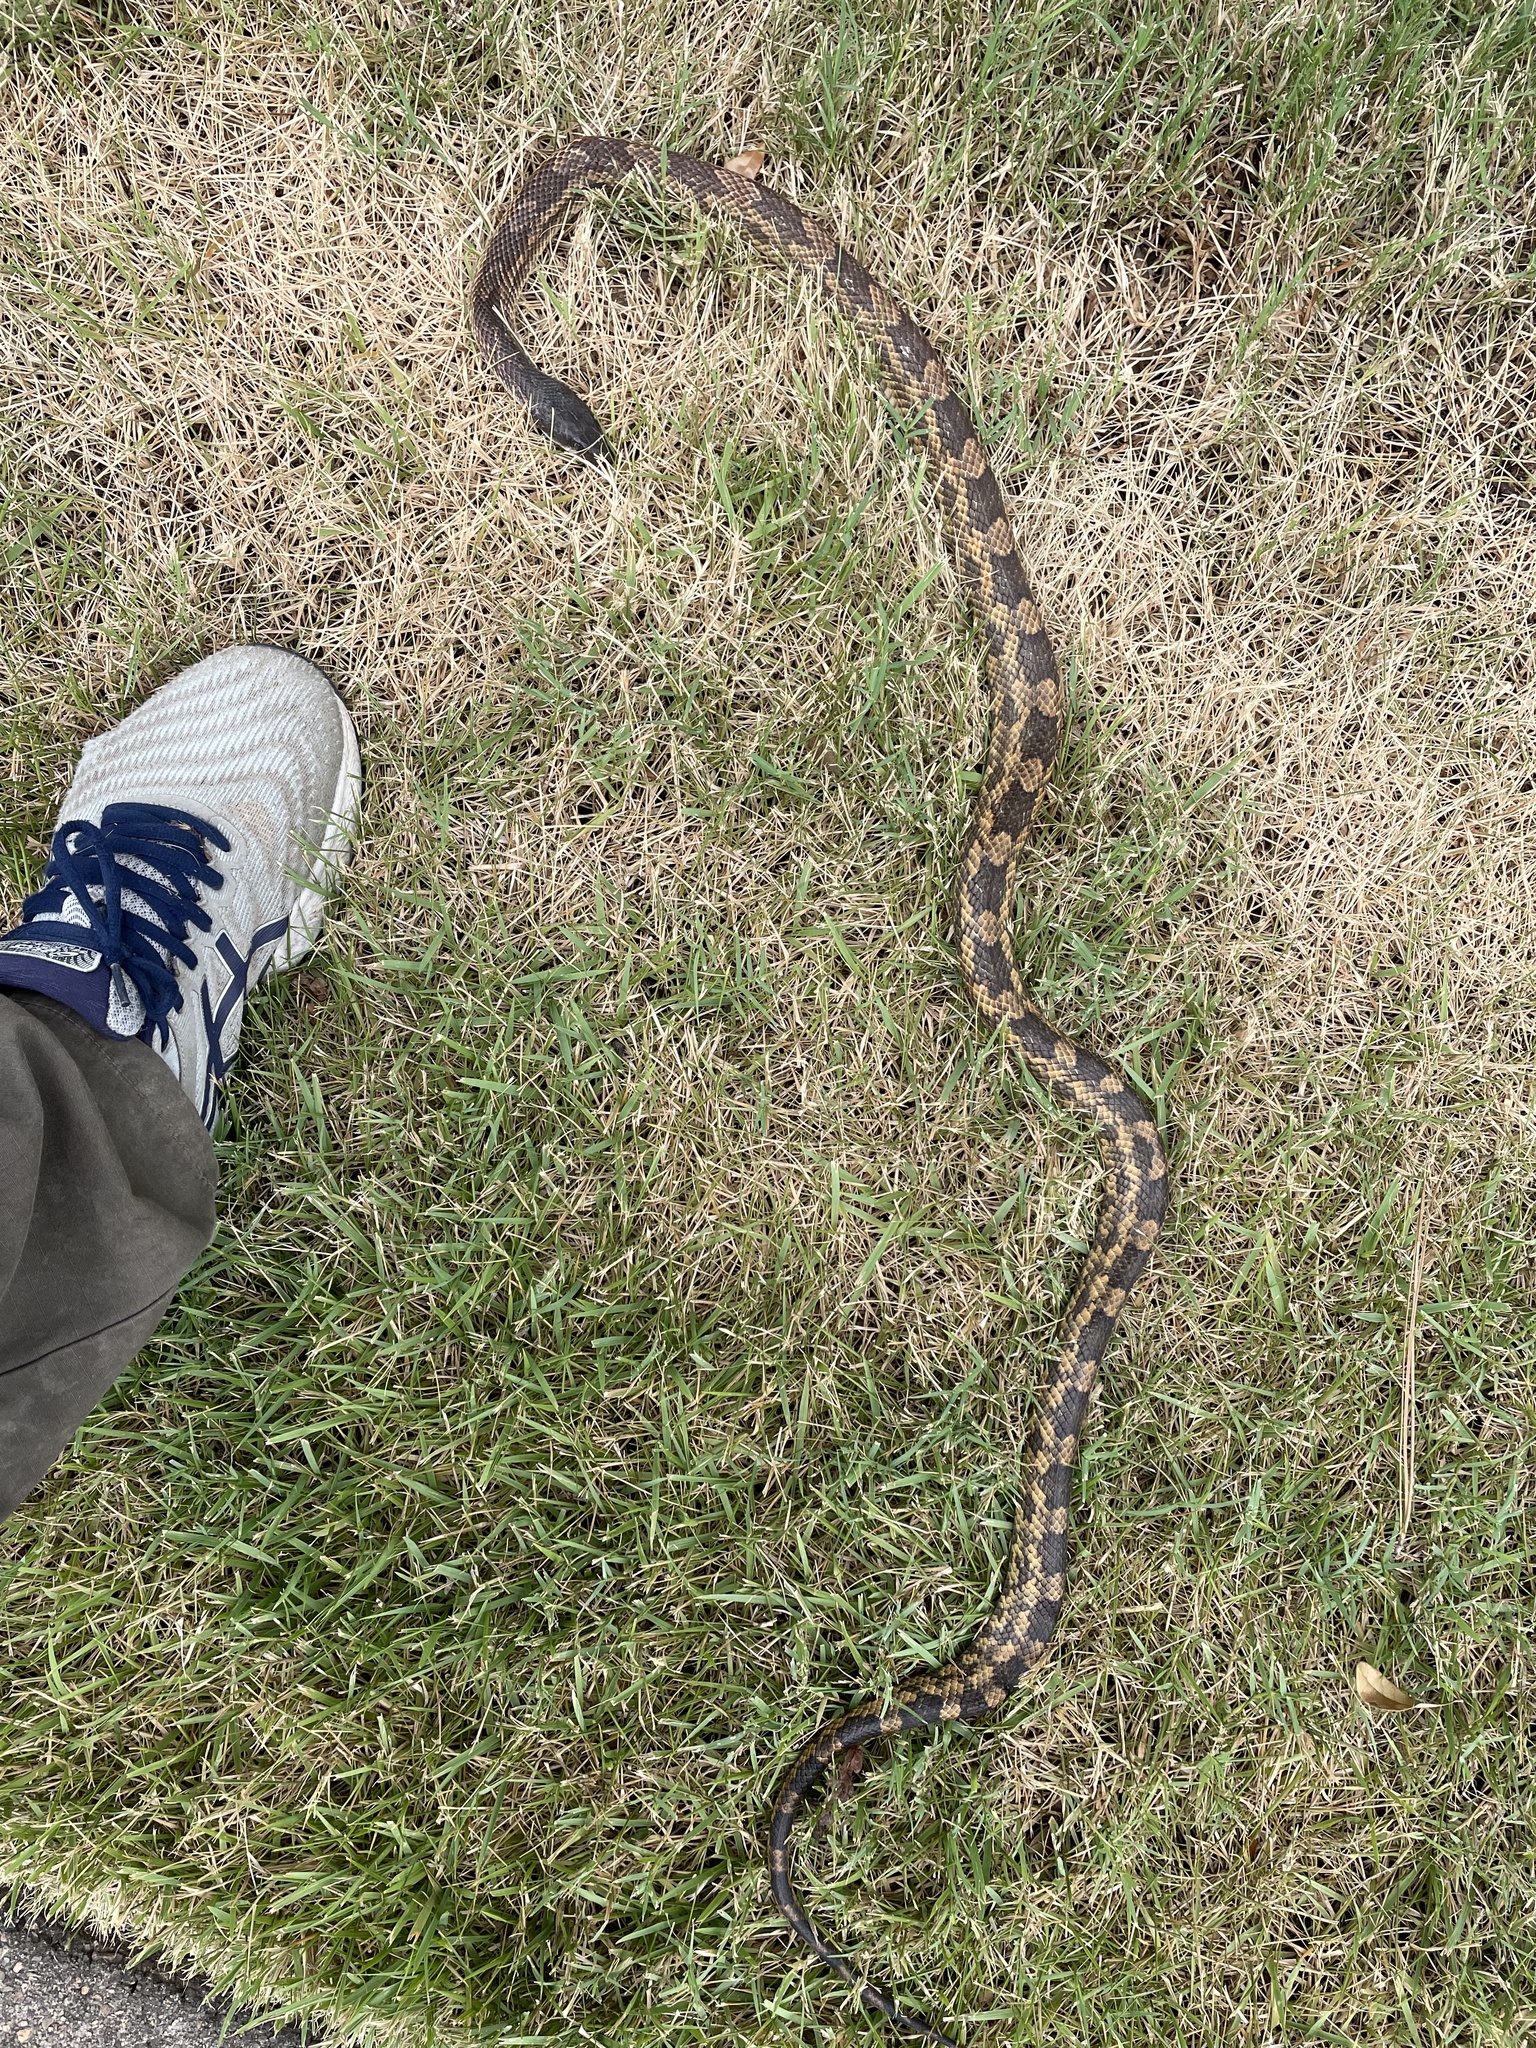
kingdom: Animalia
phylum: Chordata
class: Squamata
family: Colubridae
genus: Pantherophis
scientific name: Pantherophis obsoletus
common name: Black rat snake
